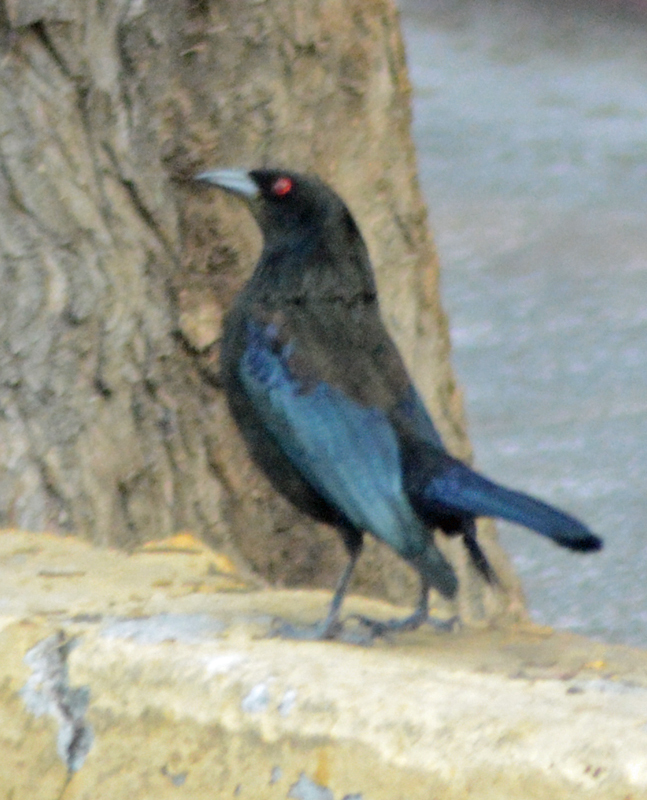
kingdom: Animalia
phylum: Chordata
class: Aves
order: Passeriformes
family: Icteridae
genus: Molothrus
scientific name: Molothrus aeneus
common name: Bronzed cowbird
